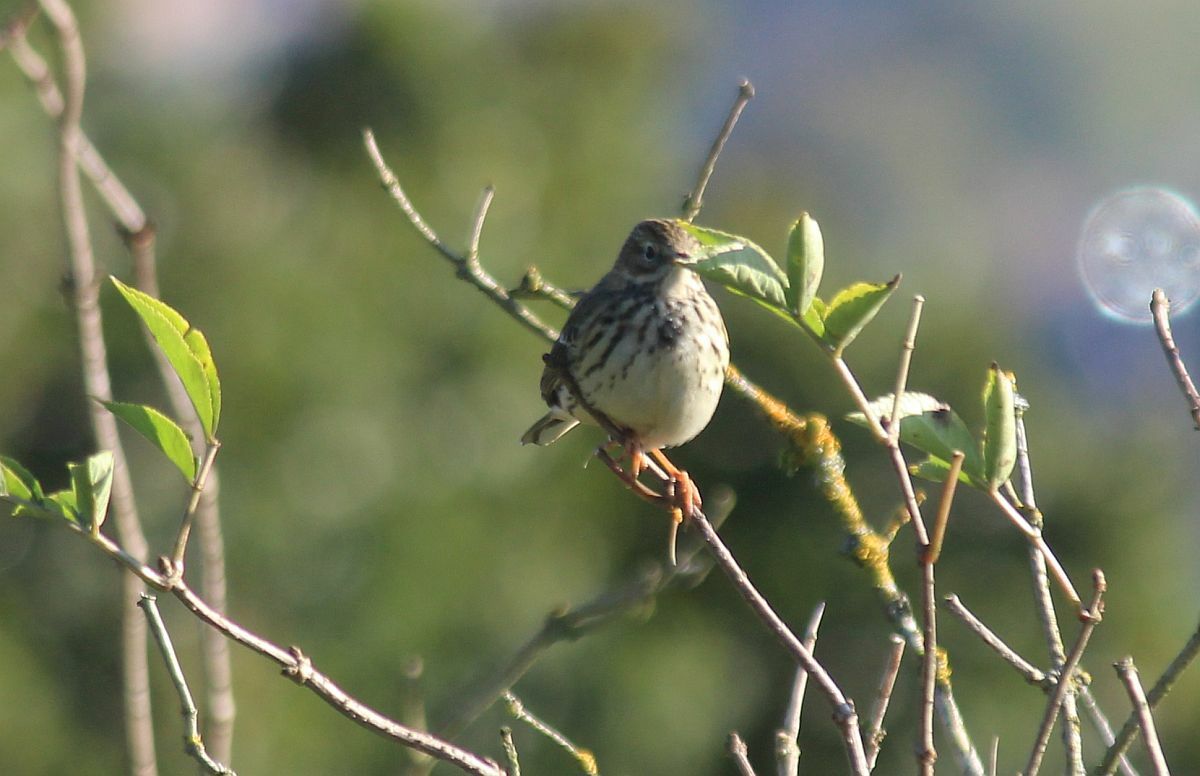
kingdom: Animalia
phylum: Chordata
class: Aves
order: Passeriformes
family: Motacillidae
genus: Anthus
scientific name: Anthus pratensis
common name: Meadow pipit
